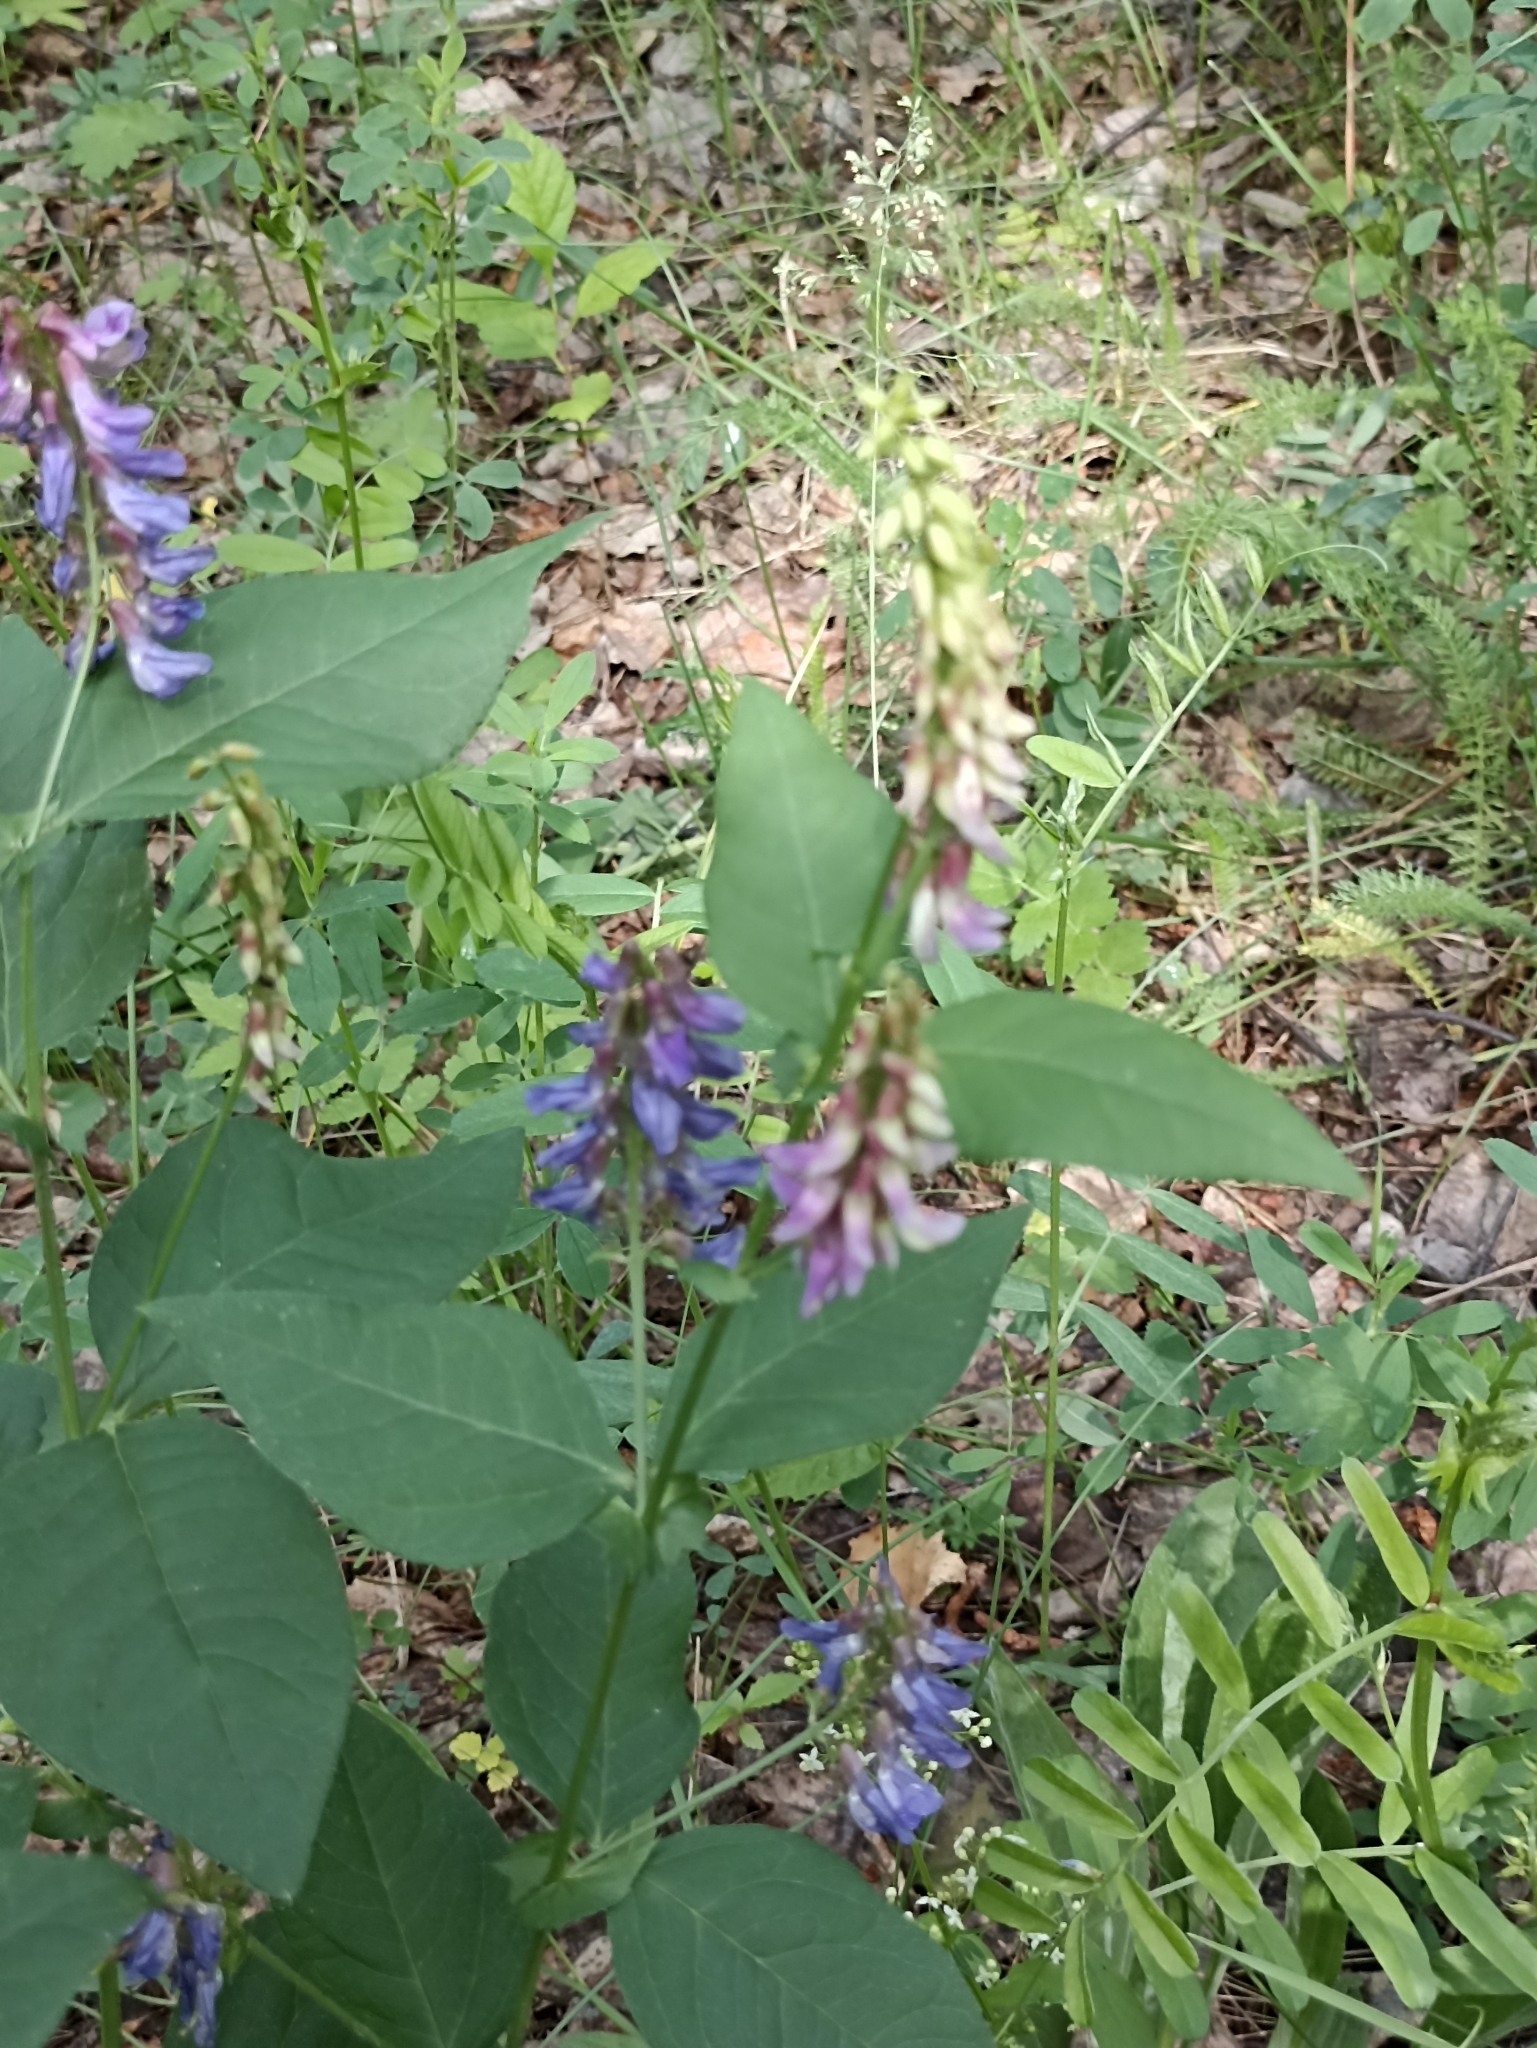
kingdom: Plantae
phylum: Tracheophyta
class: Magnoliopsida
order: Fabales
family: Fabaceae
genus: Vicia
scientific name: Vicia unijuga
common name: Two-leaf vetch
